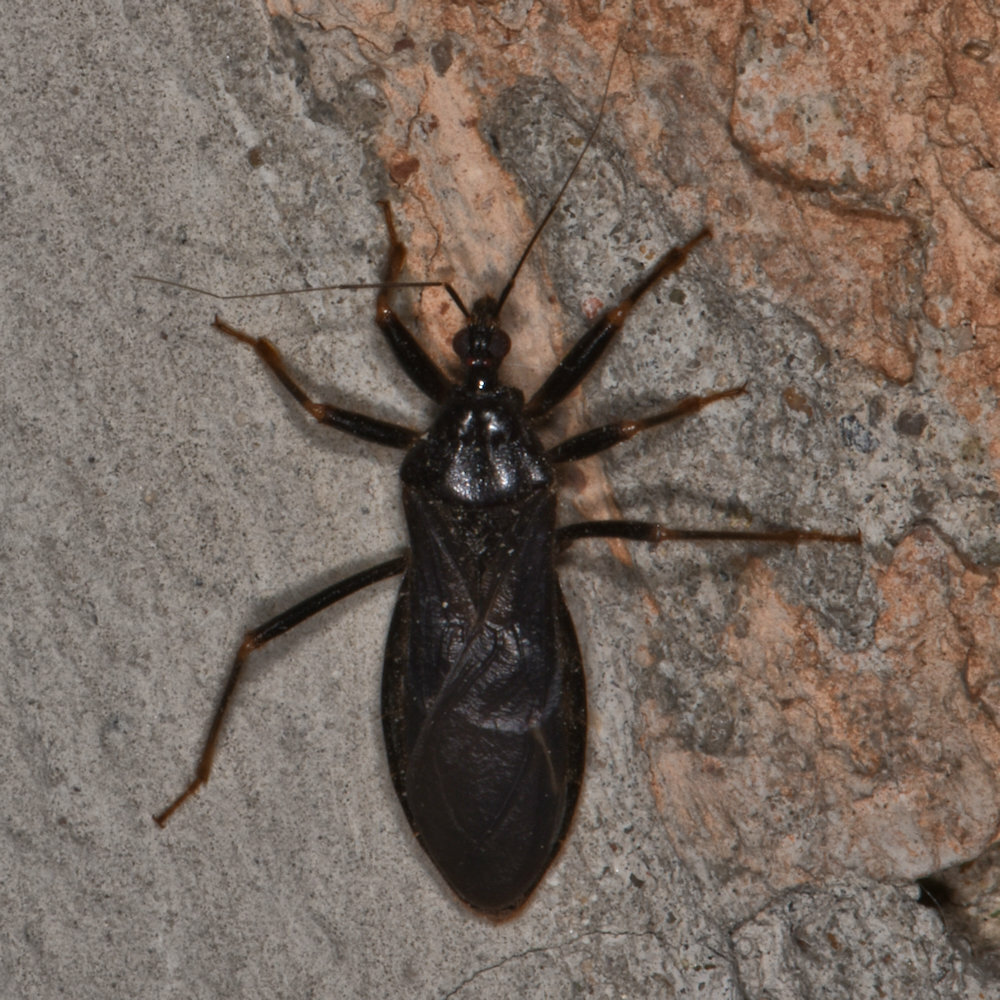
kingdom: Animalia
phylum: Arthropoda
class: Insecta
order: Hemiptera
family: Reduviidae
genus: Reduvius
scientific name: Reduvius personatus
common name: Masked hunter
